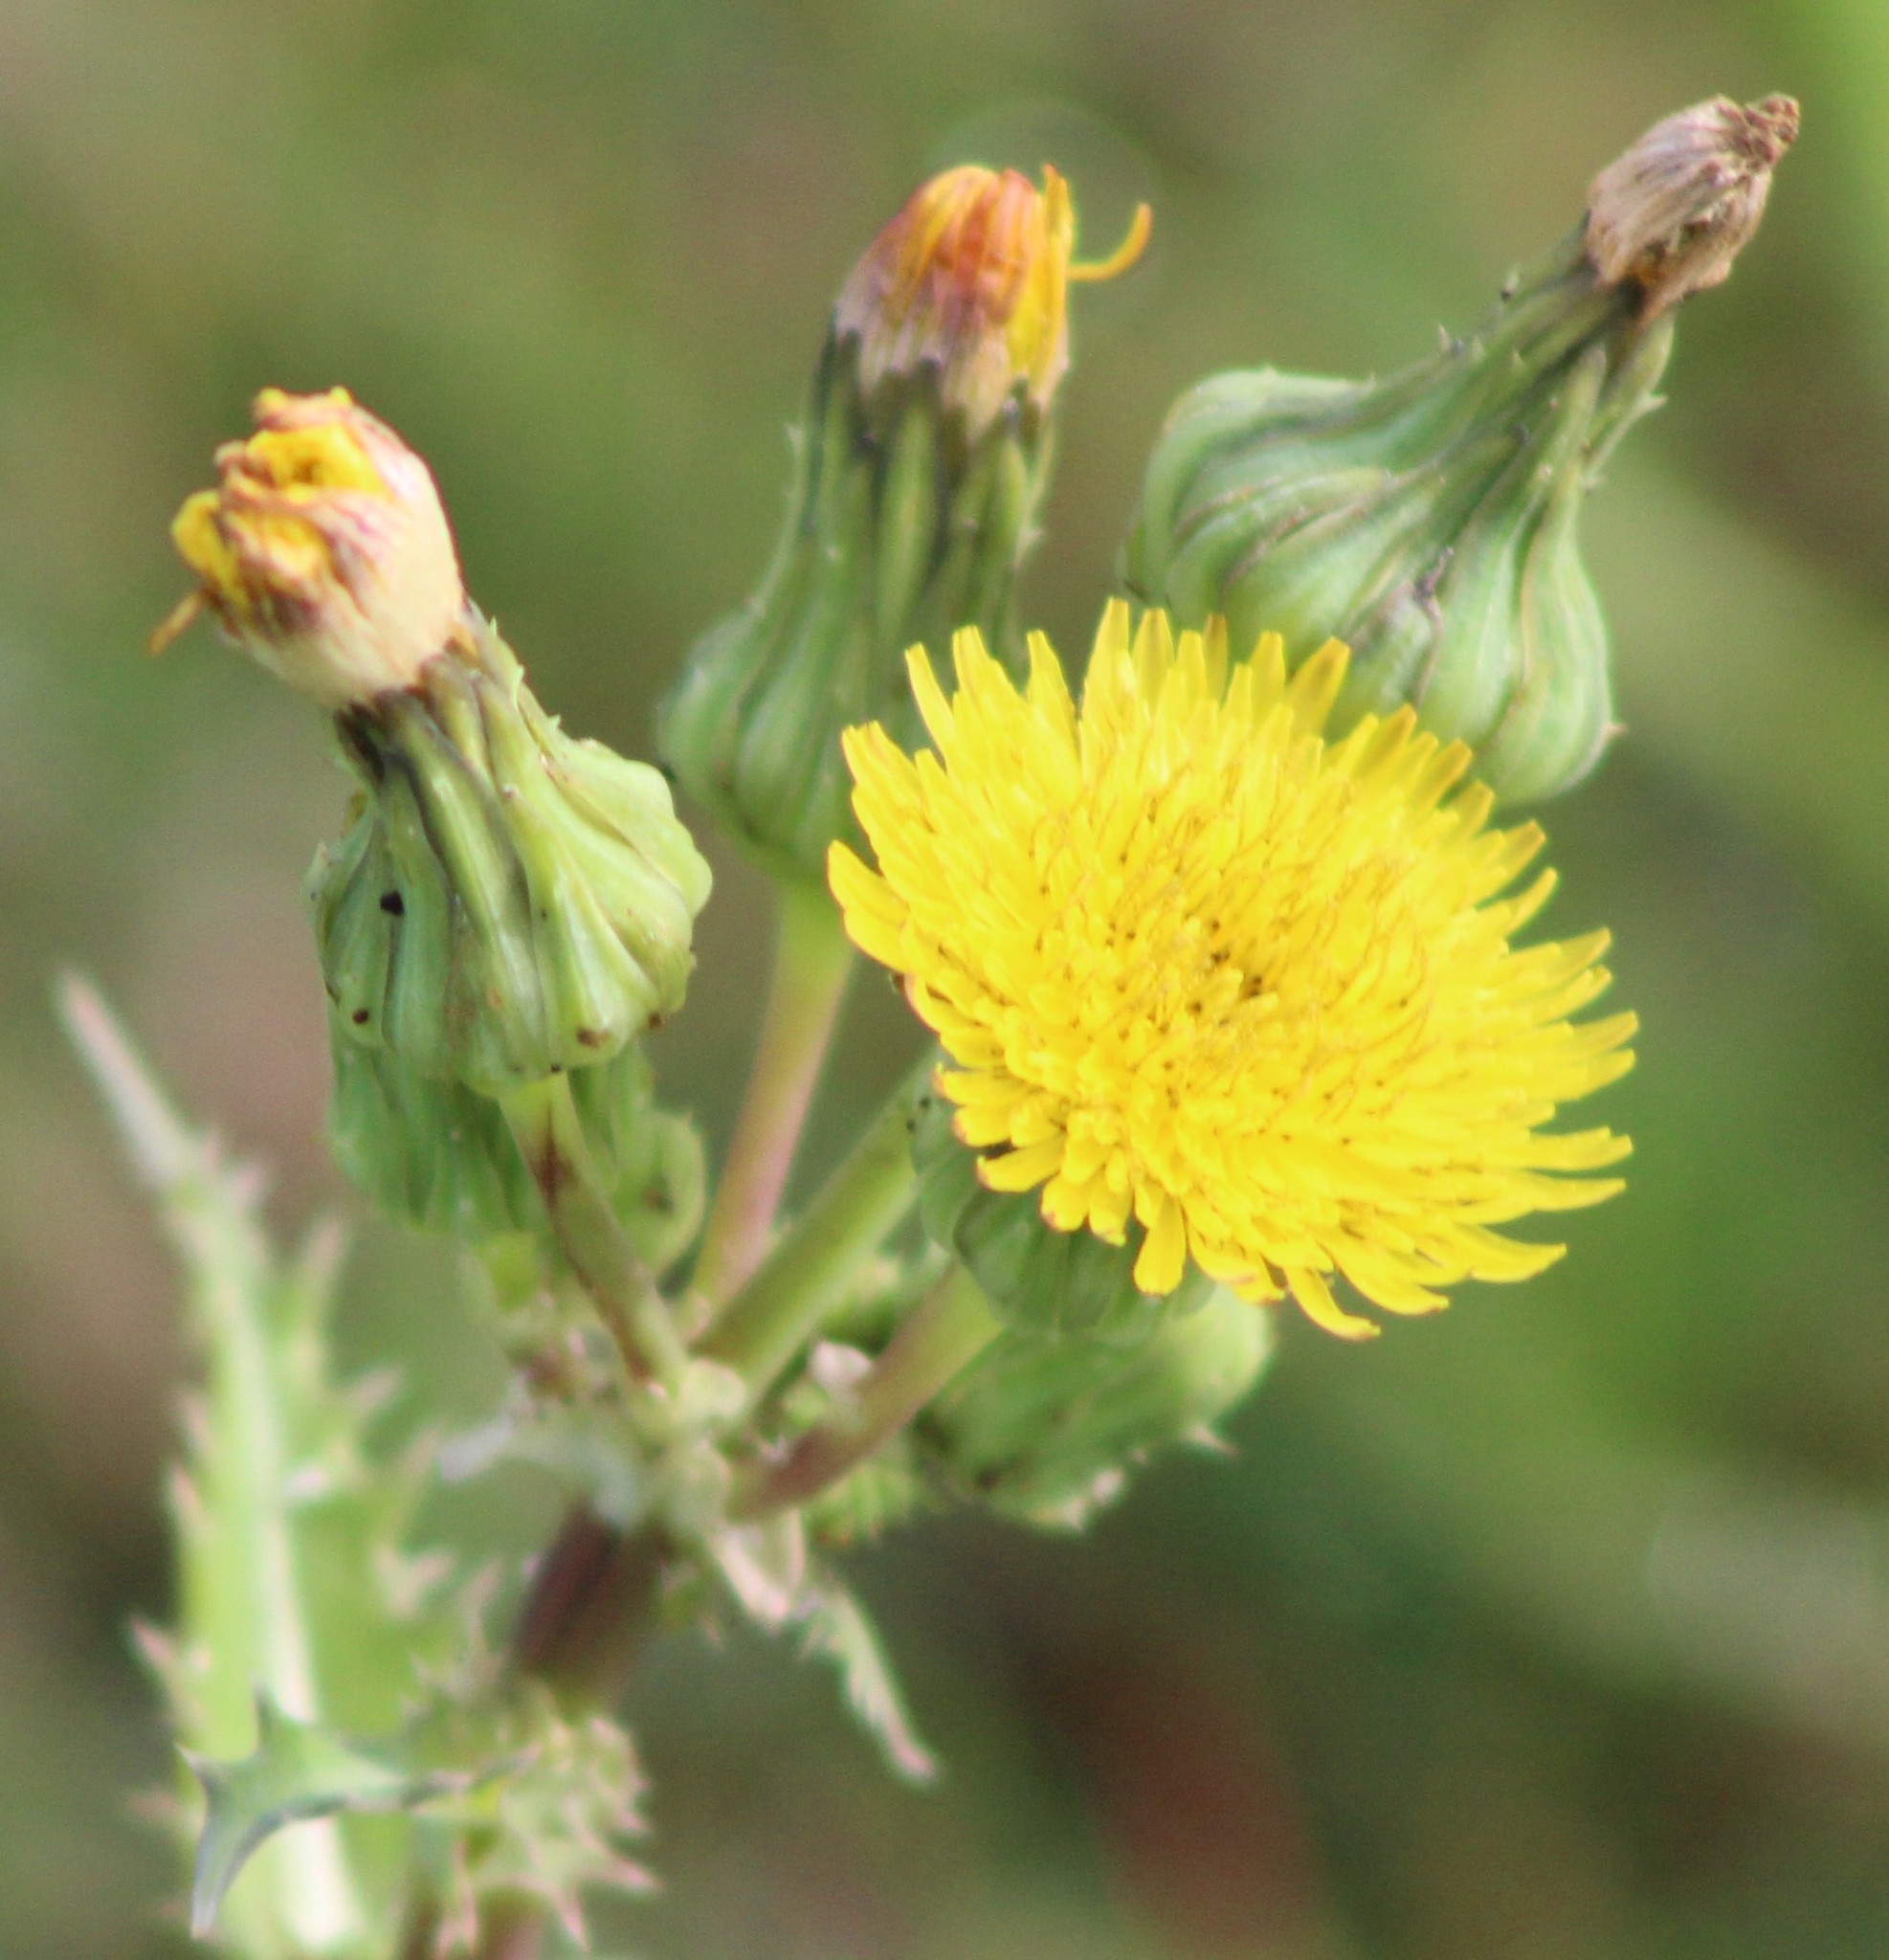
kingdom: Plantae
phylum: Tracheophyta
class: Magnoliopsida
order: Asterales
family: Asteraceae
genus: Sonchus
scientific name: Sonchus asper
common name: Prickly sow-thistle
